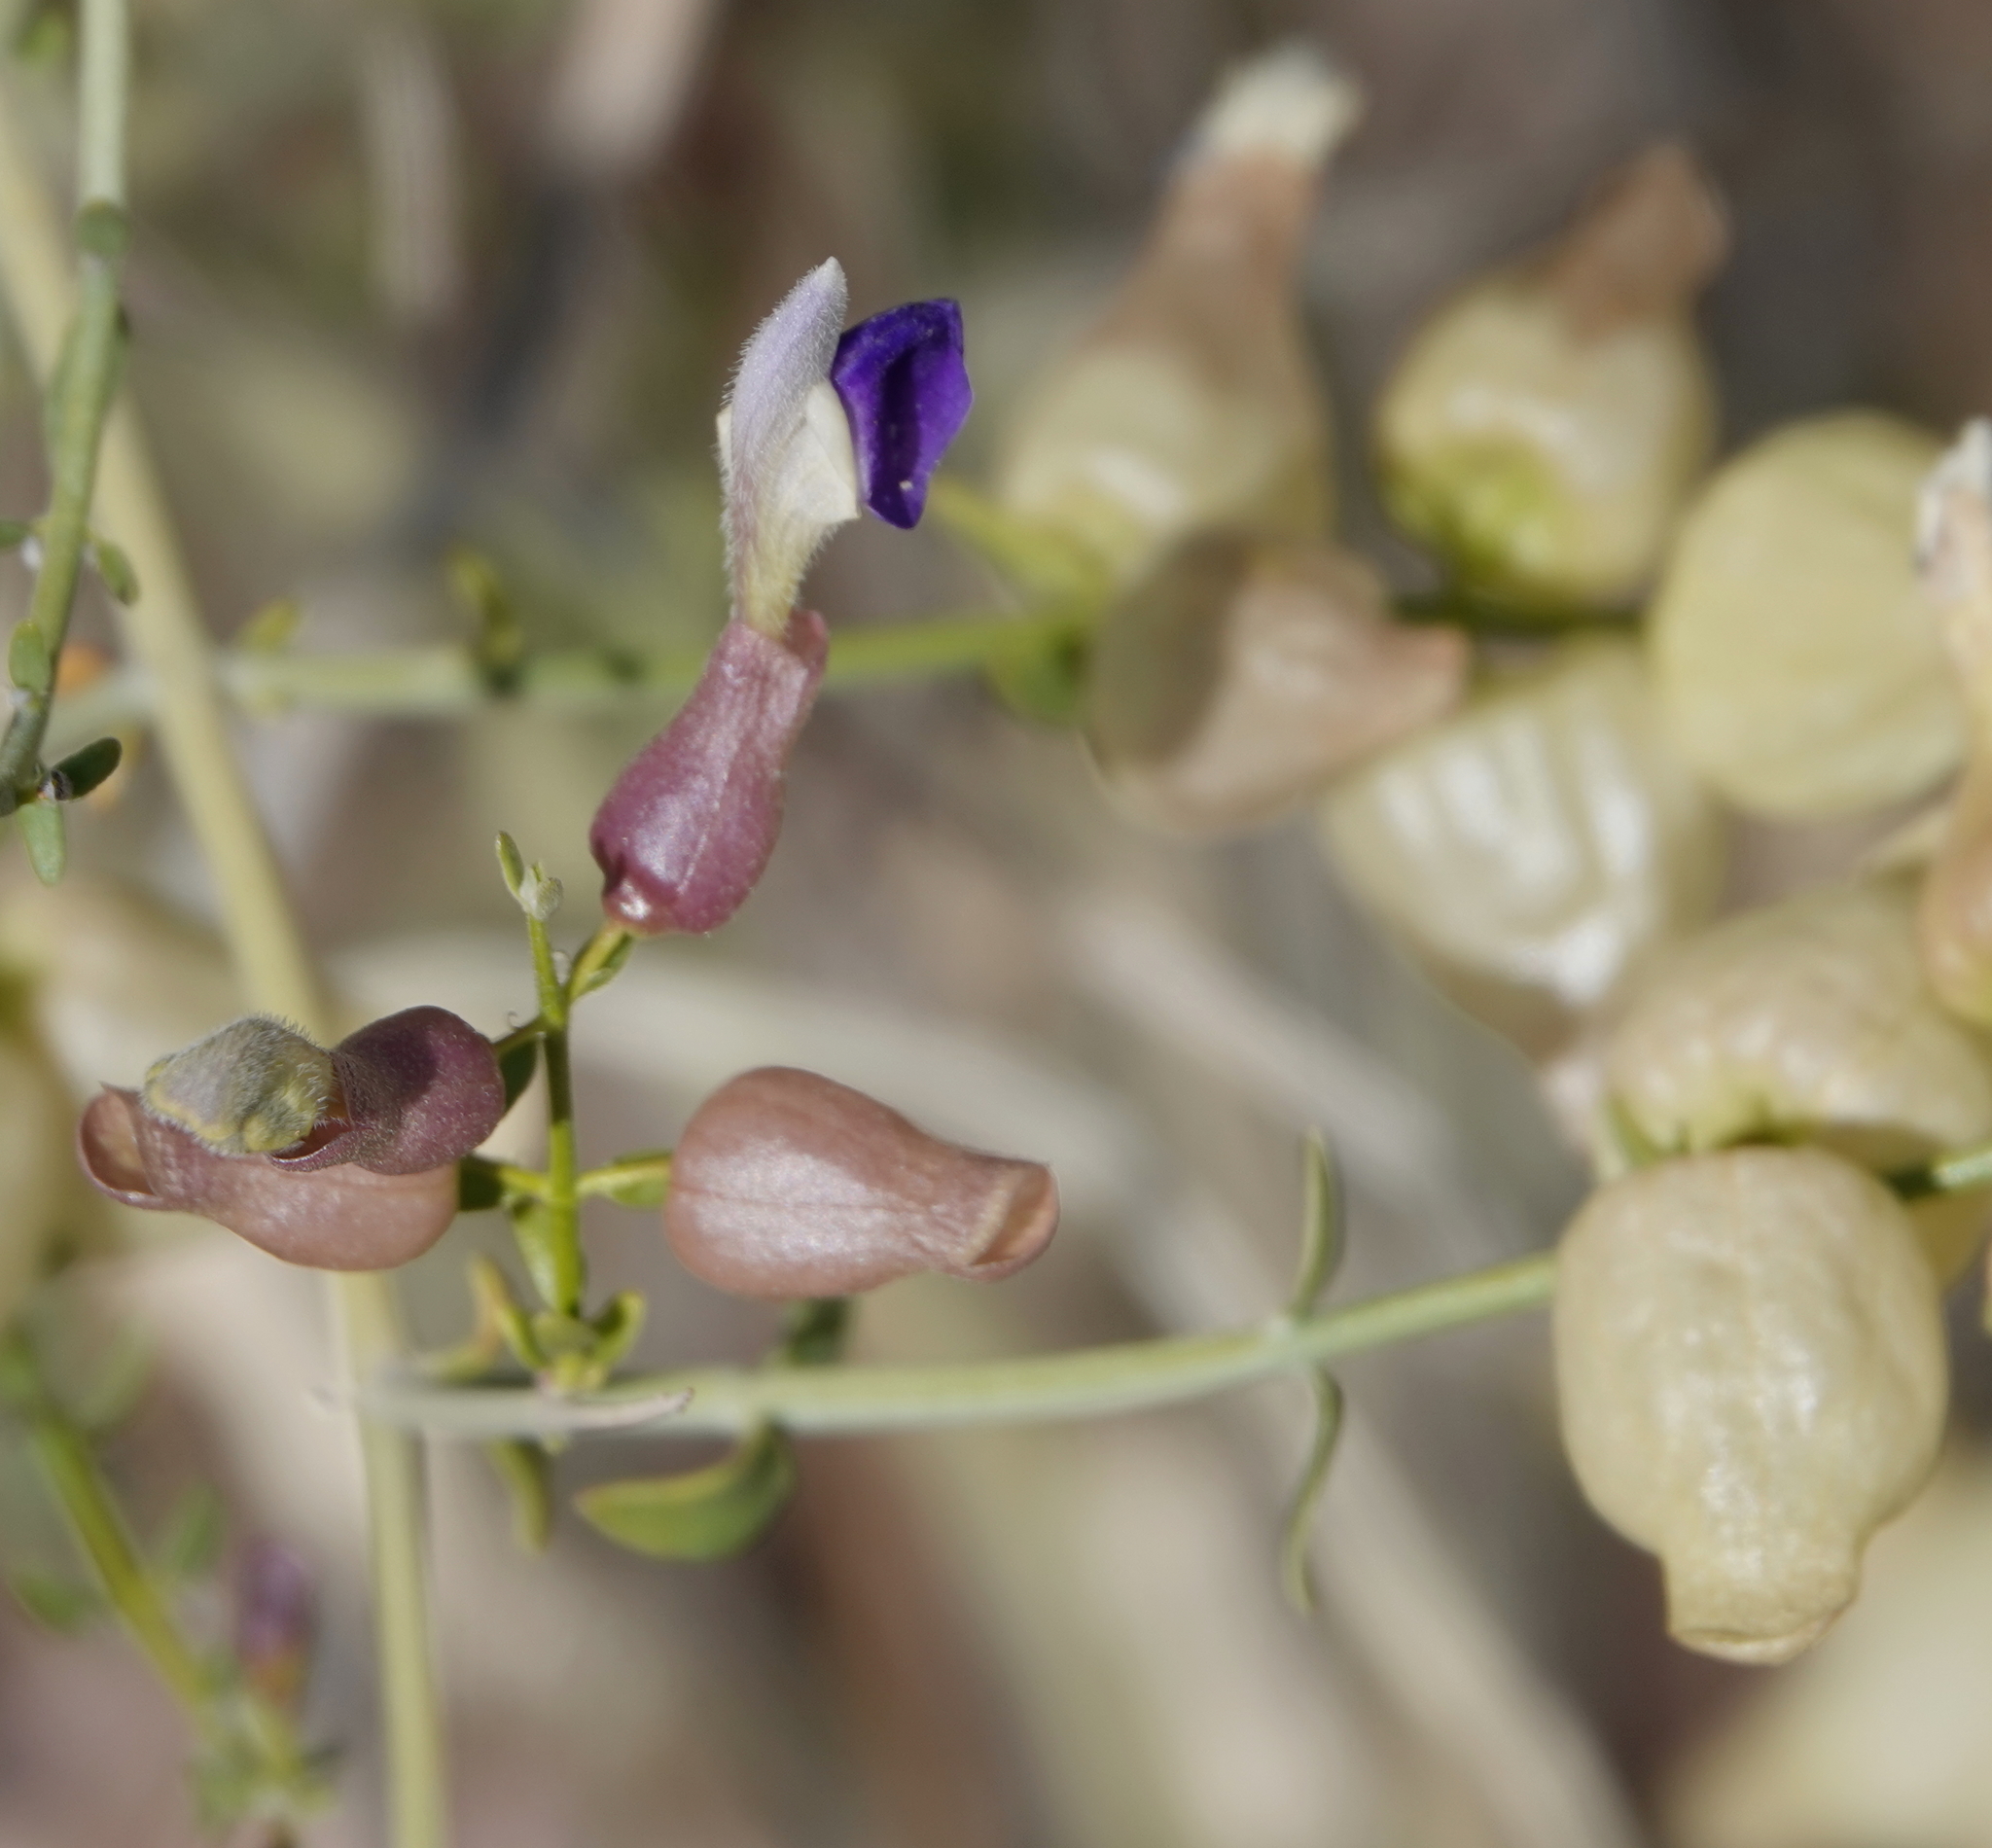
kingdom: Plantae
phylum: Tracheophyta
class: Magnoliopsida
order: Lamiales
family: Lamiaceae
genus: Scutellaria
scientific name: Scutellaria mexicana
